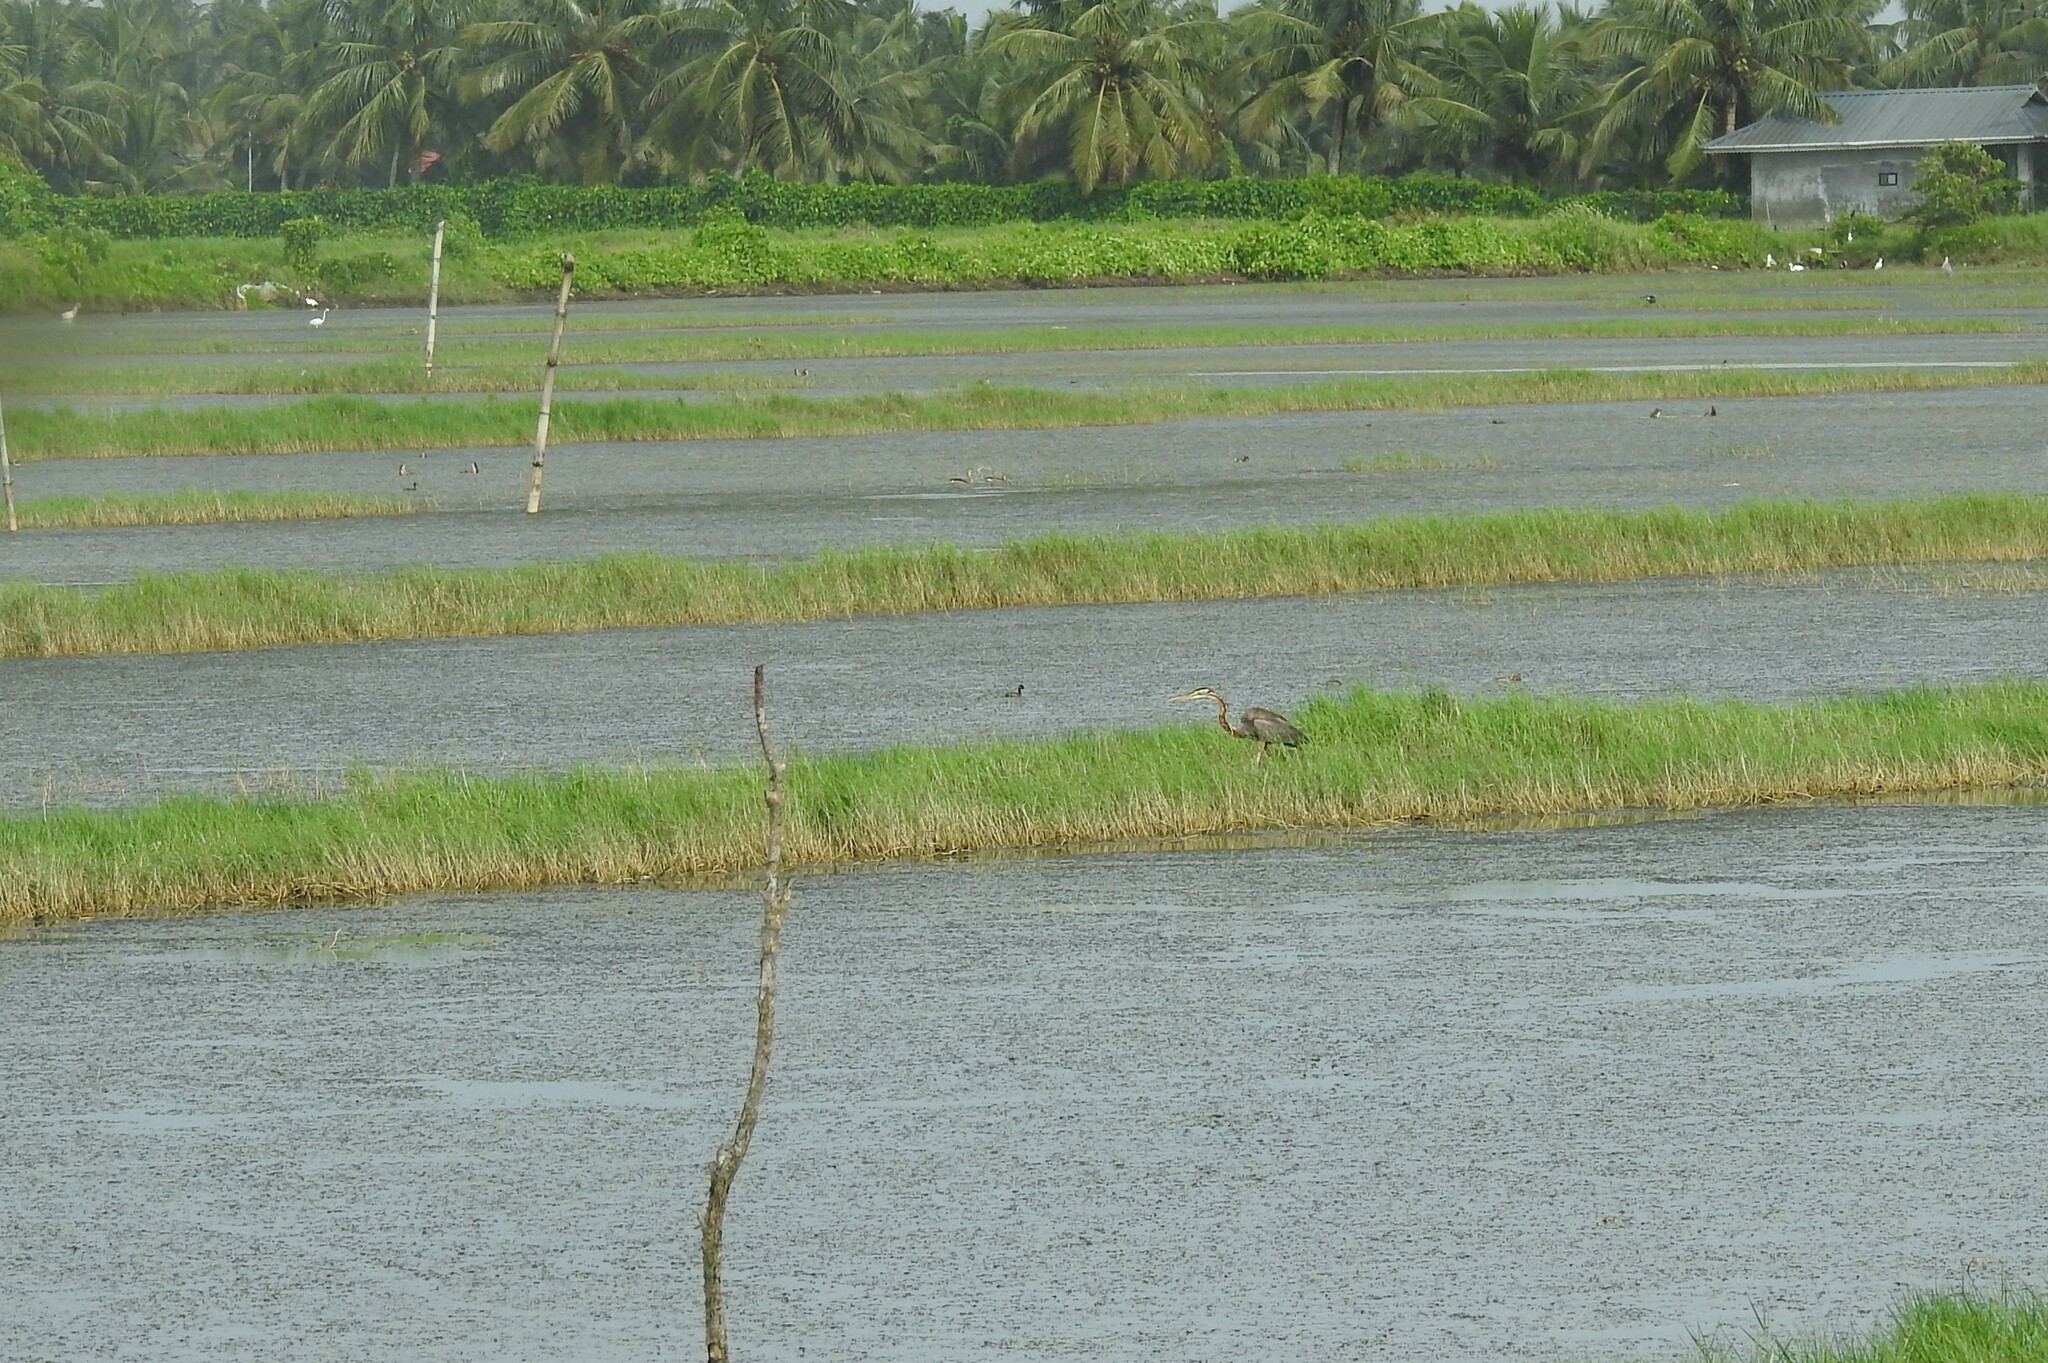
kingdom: Animalia
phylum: Chordata
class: Aves
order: Pelecaniformes
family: Ardeidae
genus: Ardea
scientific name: Ardea purpurea
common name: Purple heron
